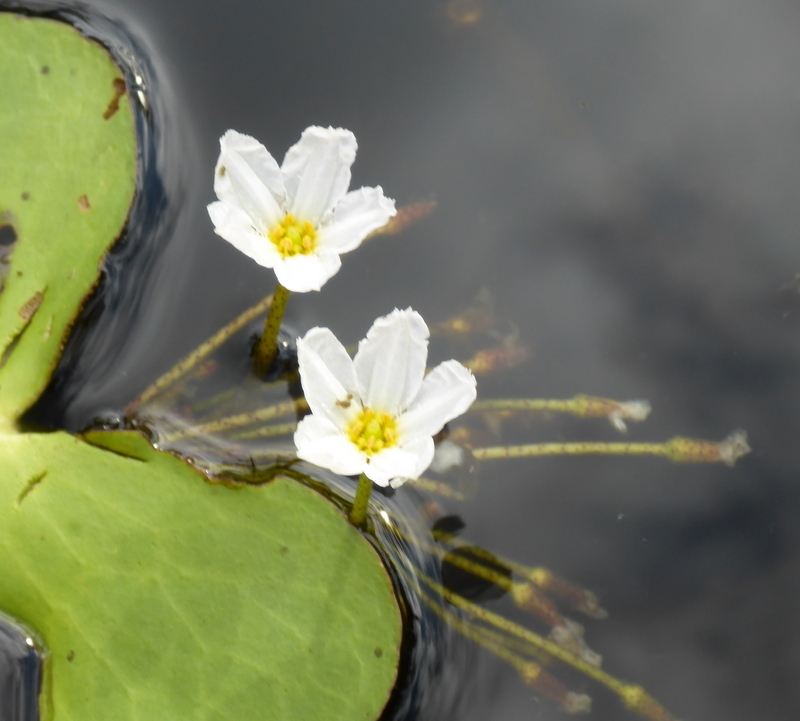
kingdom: Plantae
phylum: Tracheophyta
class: Magnoliopsida
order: Asterales
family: Menyanthaceae
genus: Nymphoides
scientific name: Nymphoides aquatica
